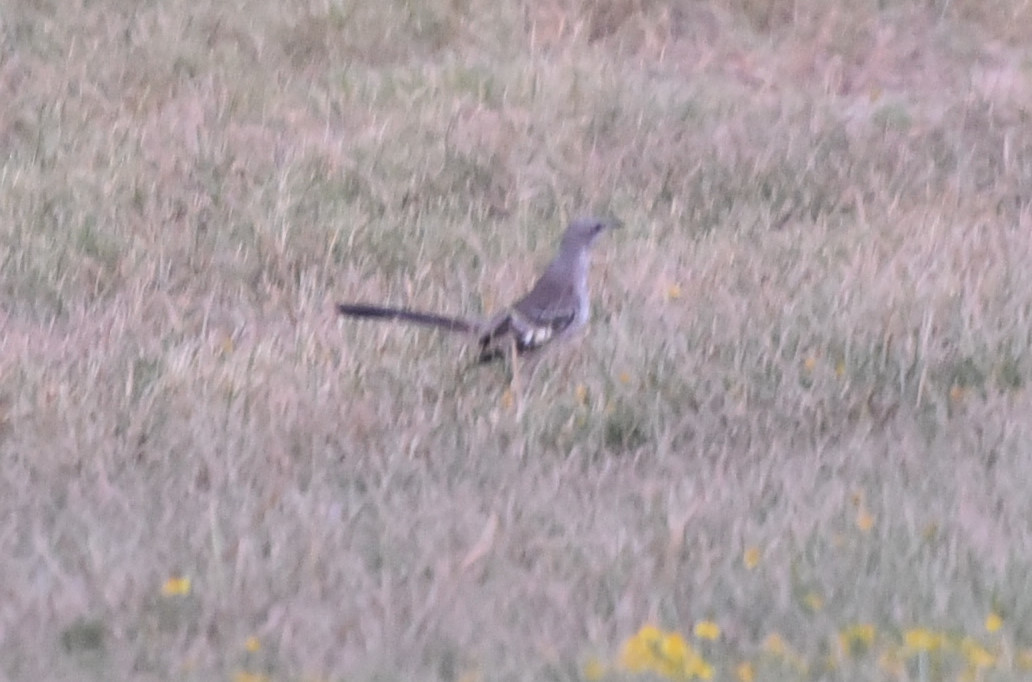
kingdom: Animalia
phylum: Chordata
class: Aves
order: Passeriformes
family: Mimidae
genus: Mimus
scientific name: Mimus polyglottos
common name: Northern mockingbird
